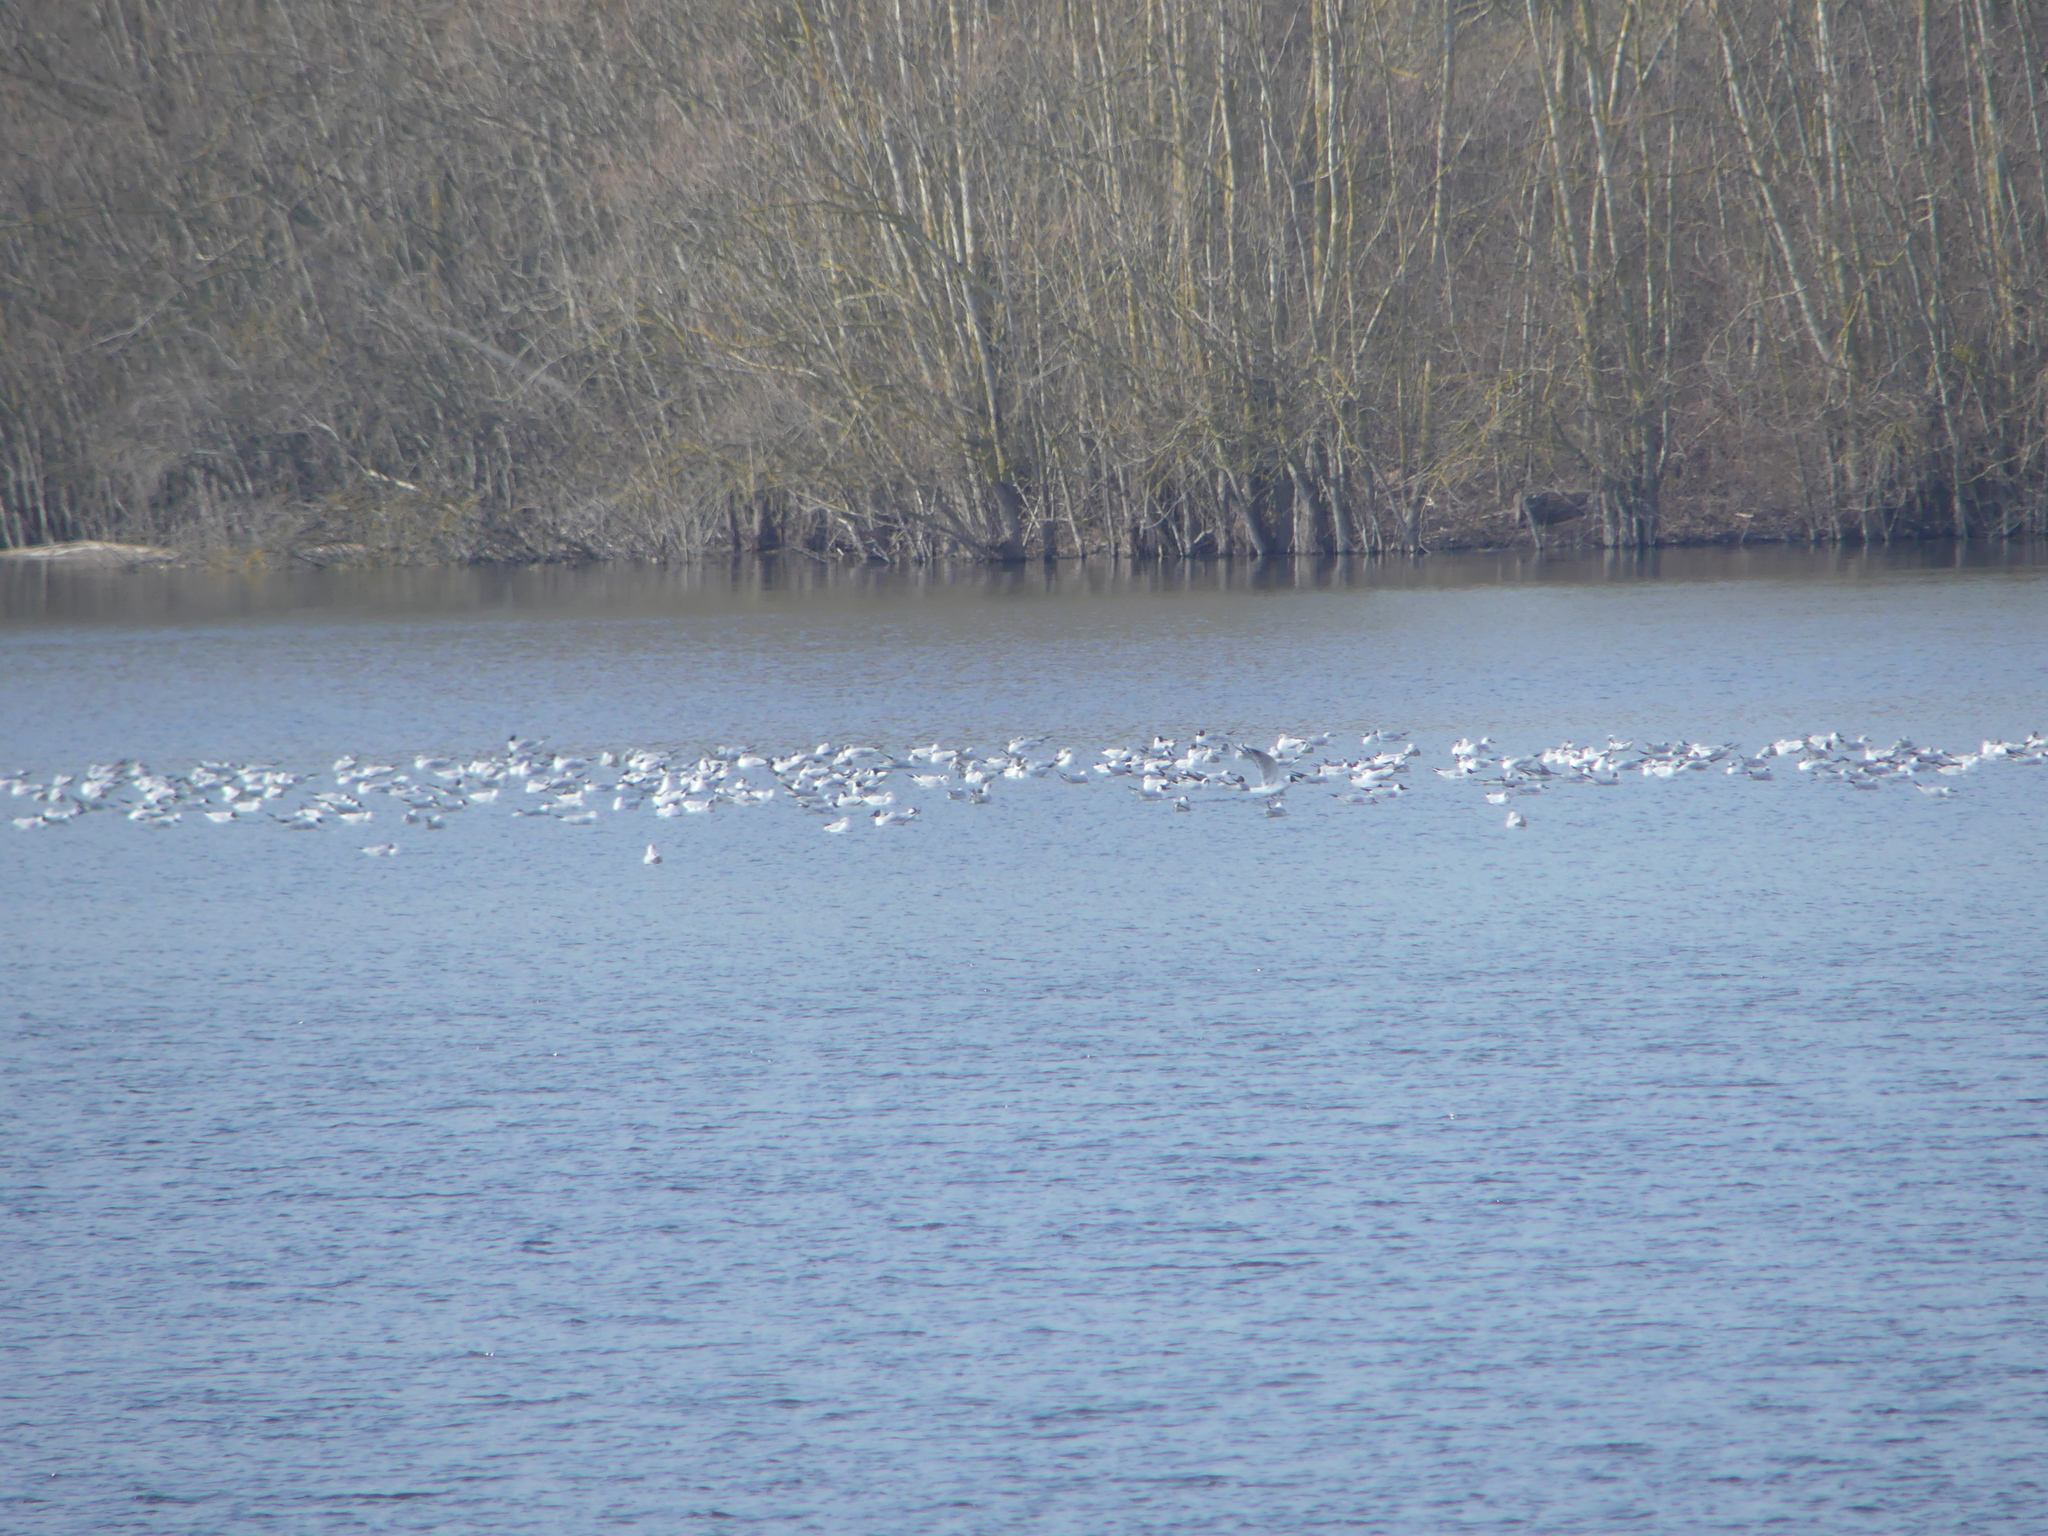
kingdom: Animalia
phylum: Chordata
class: Aves
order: Charadriiformes
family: Laridae
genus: Chroicocephalus
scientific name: Chroicocephalus ridibundus
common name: Black-headed gull
